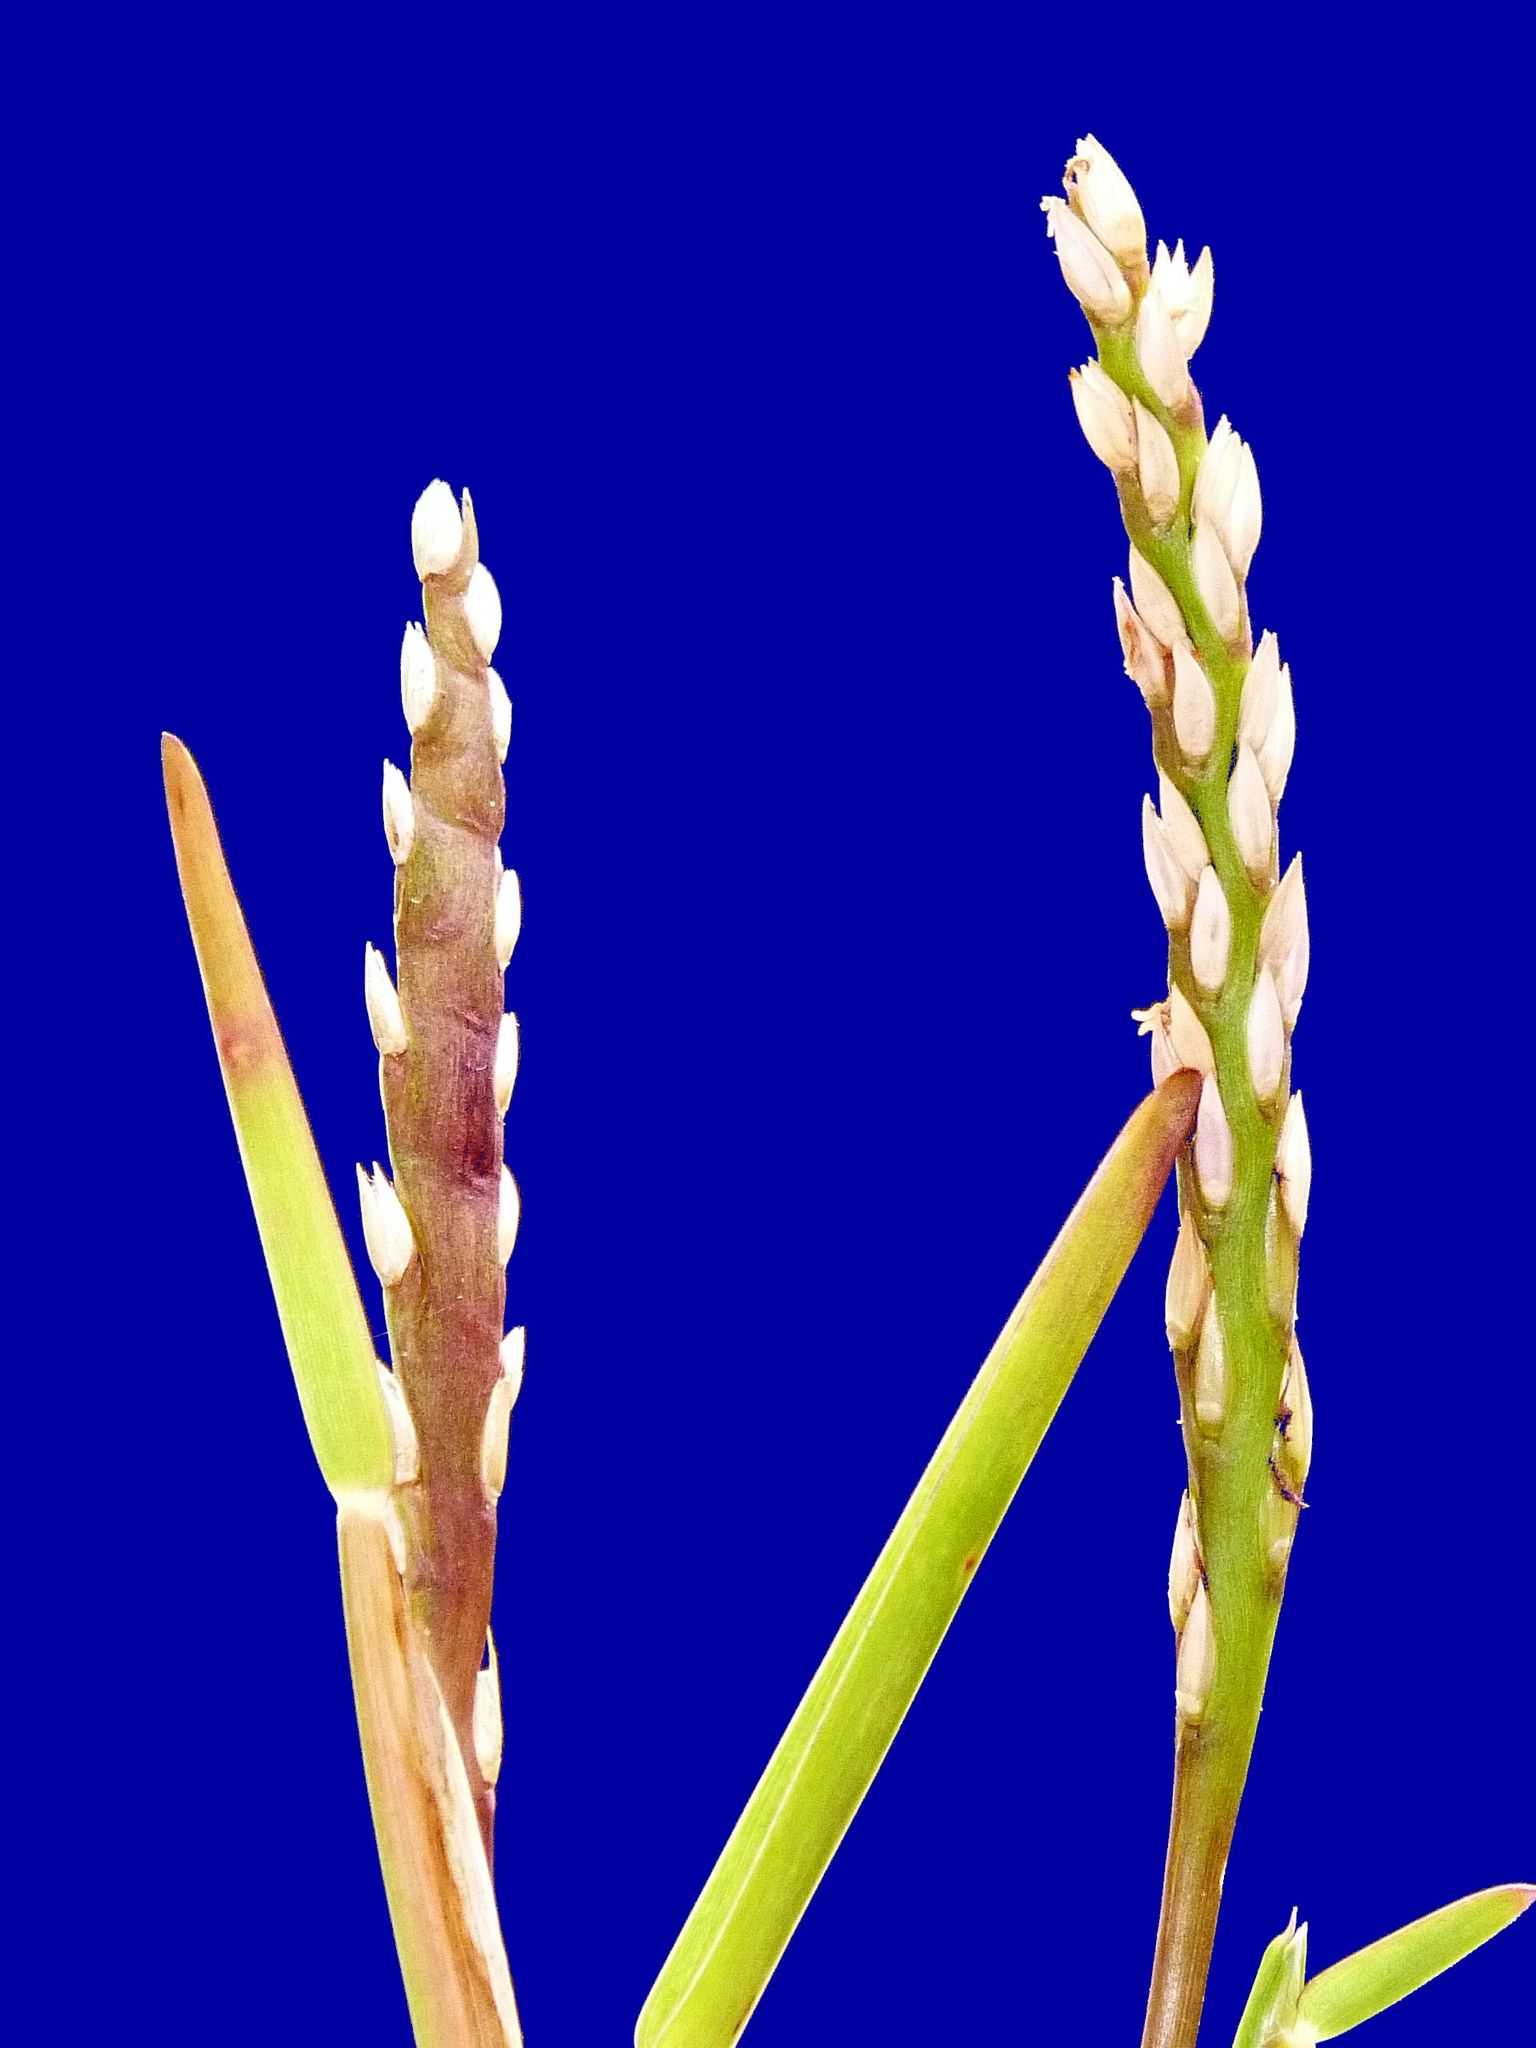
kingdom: Plantae
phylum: Tracheophyta
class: Liliopsida
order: Poales
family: Poaceae
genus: Stenotaphrum
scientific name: Stenotaphrum secundatum
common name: St. augustine grass
